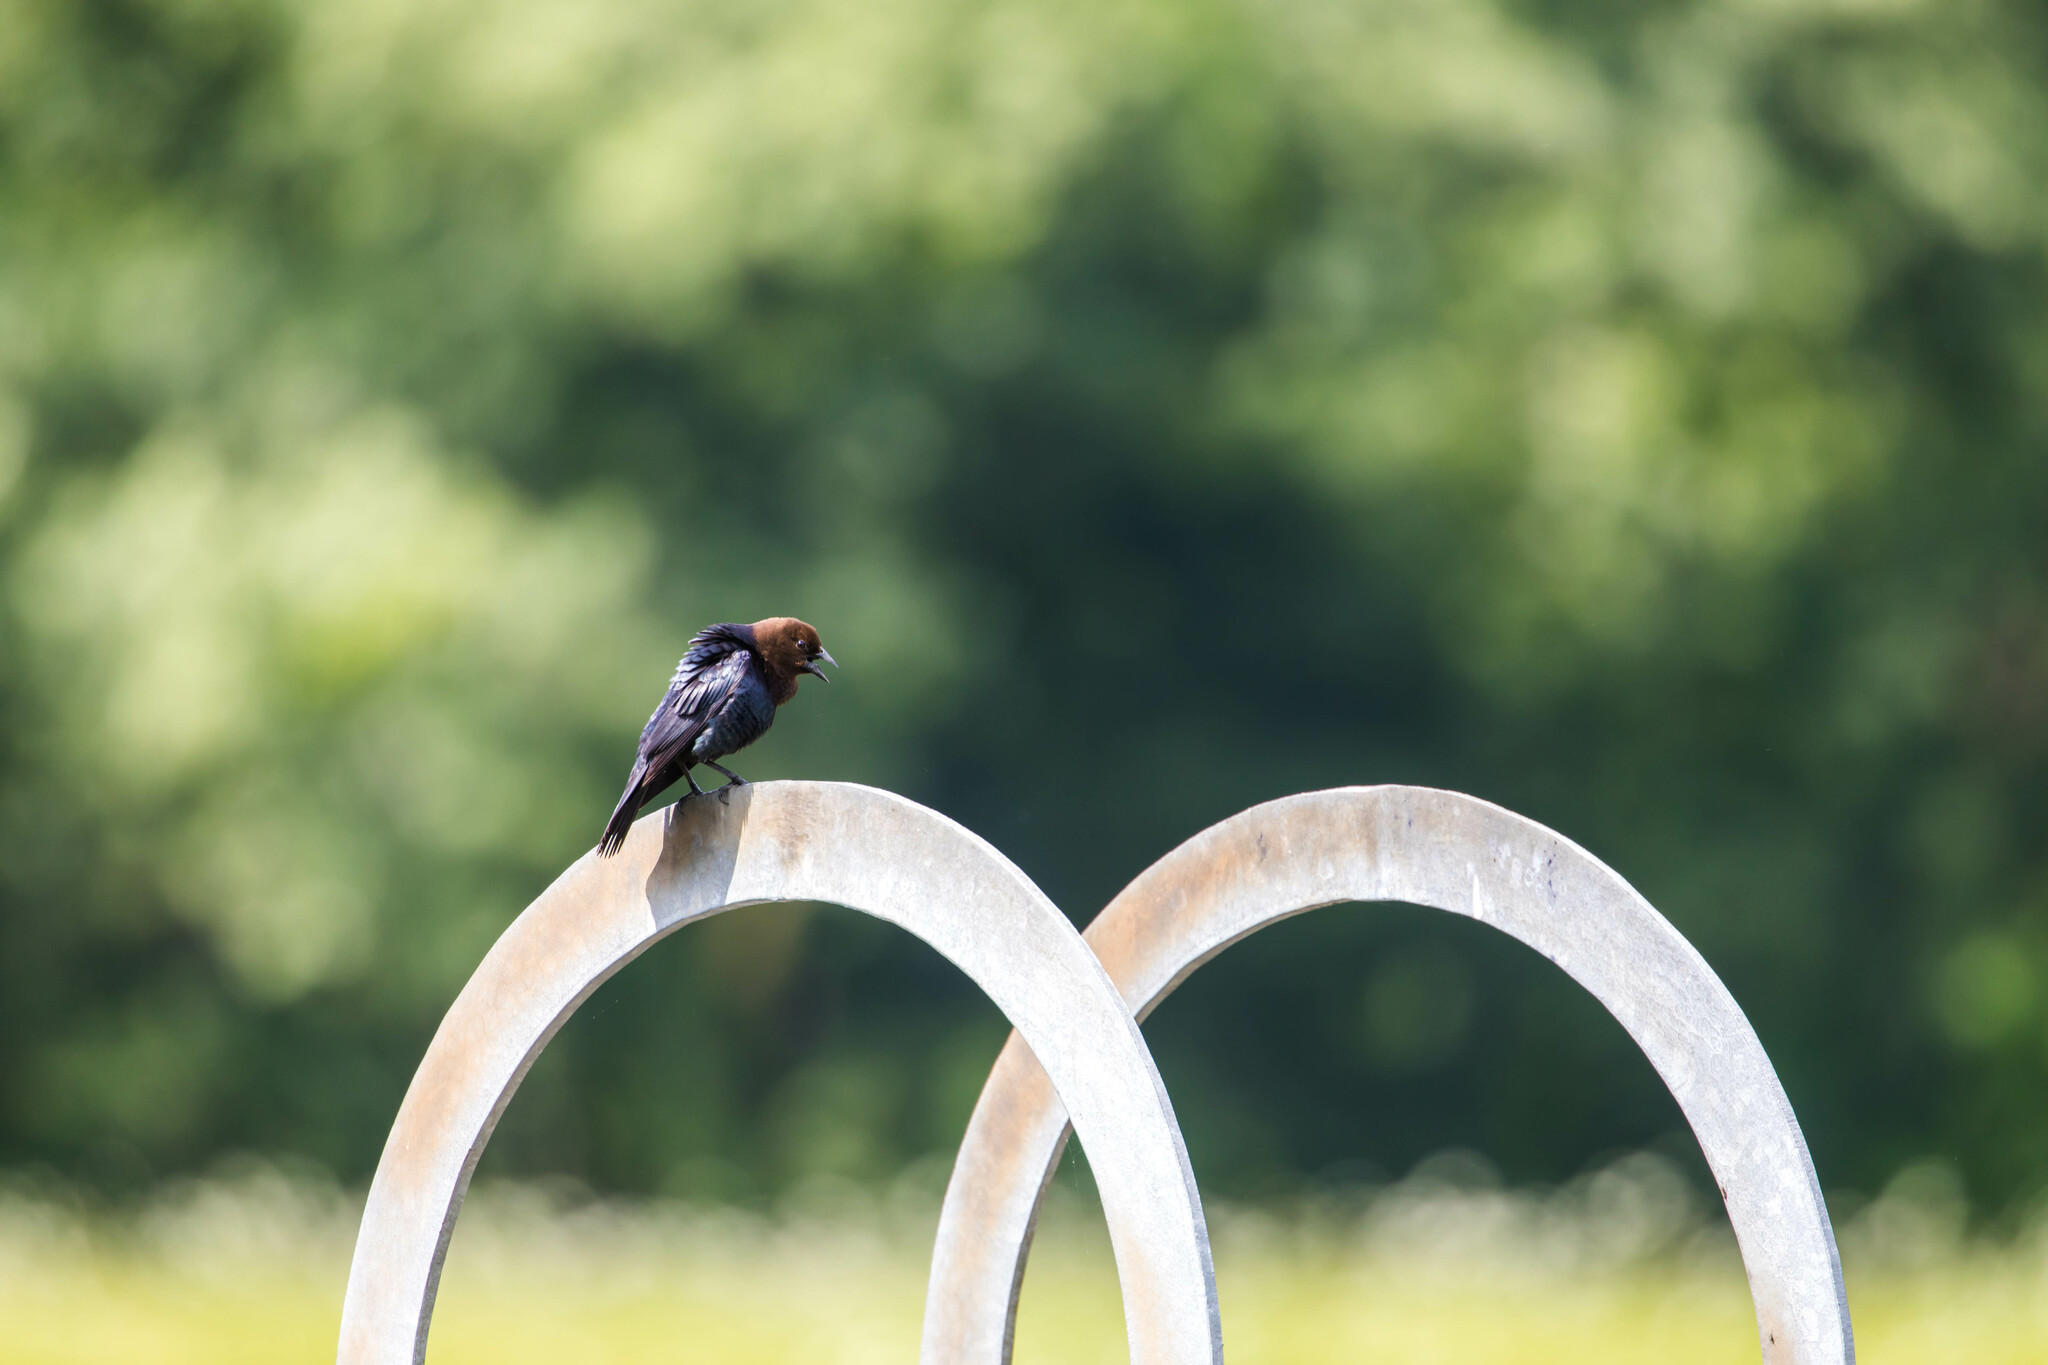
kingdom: Animalia
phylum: Chordata
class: Aves
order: Passeriformes
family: Icteridae
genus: Molothrus
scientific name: Molothrus ater
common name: Brown-headed cowbird
